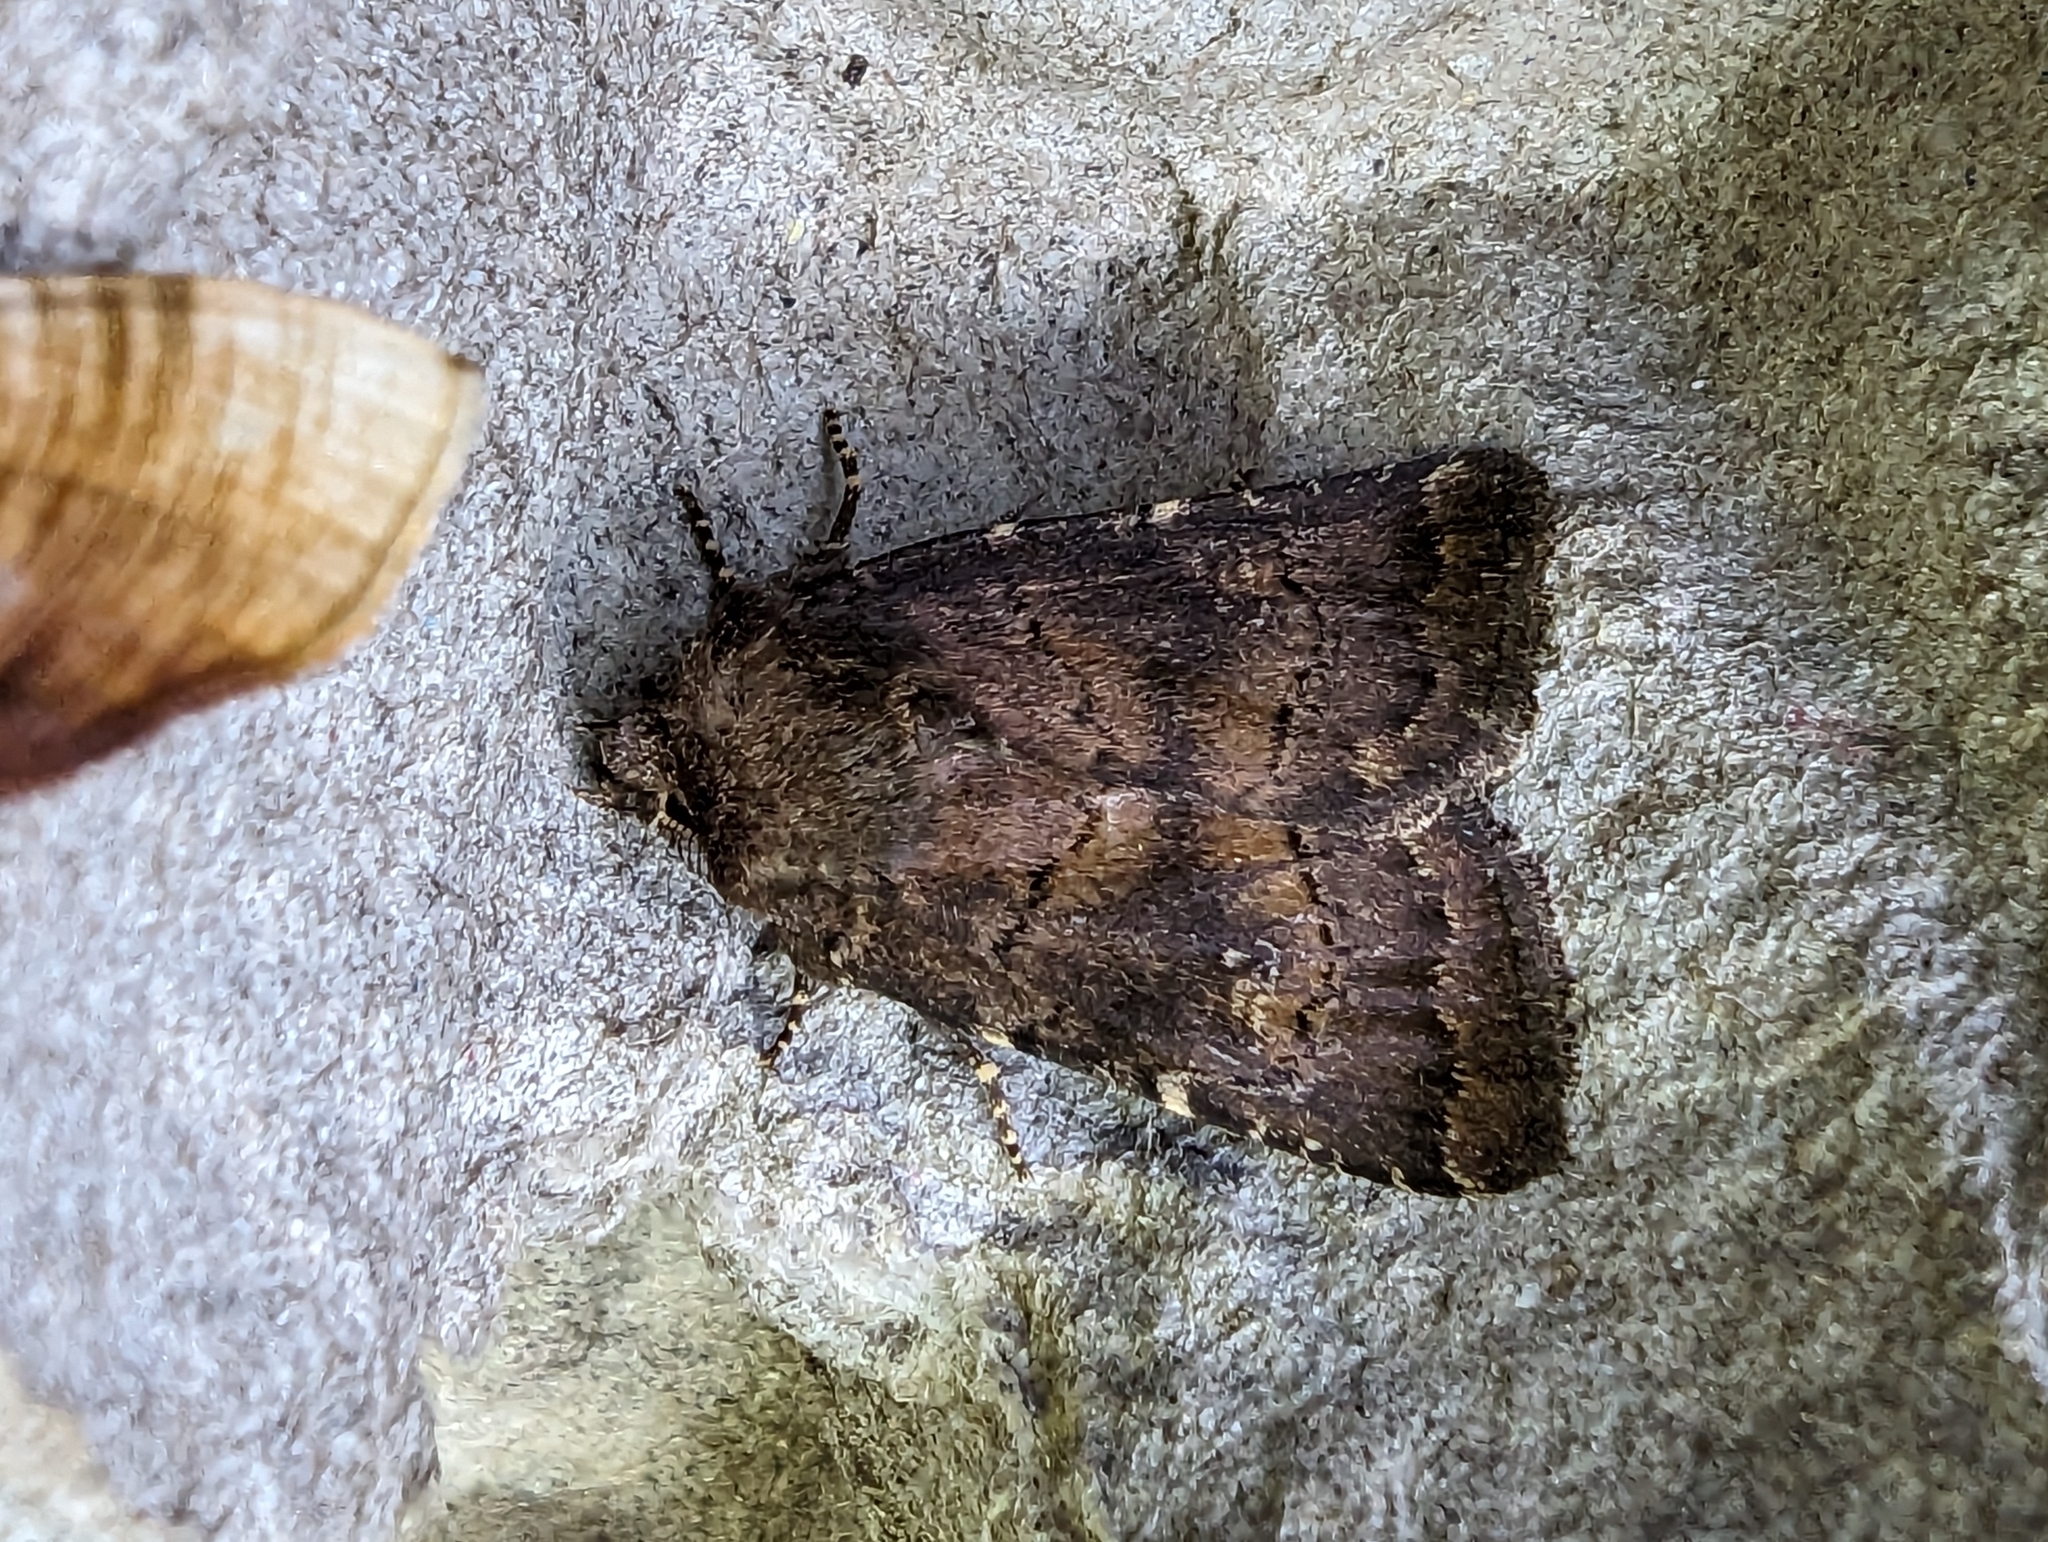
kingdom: Animalia
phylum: Arthropoda
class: Insecta
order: Lepidoptera
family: Noctuidae
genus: Charanyca
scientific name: Charanyca ferruginea
